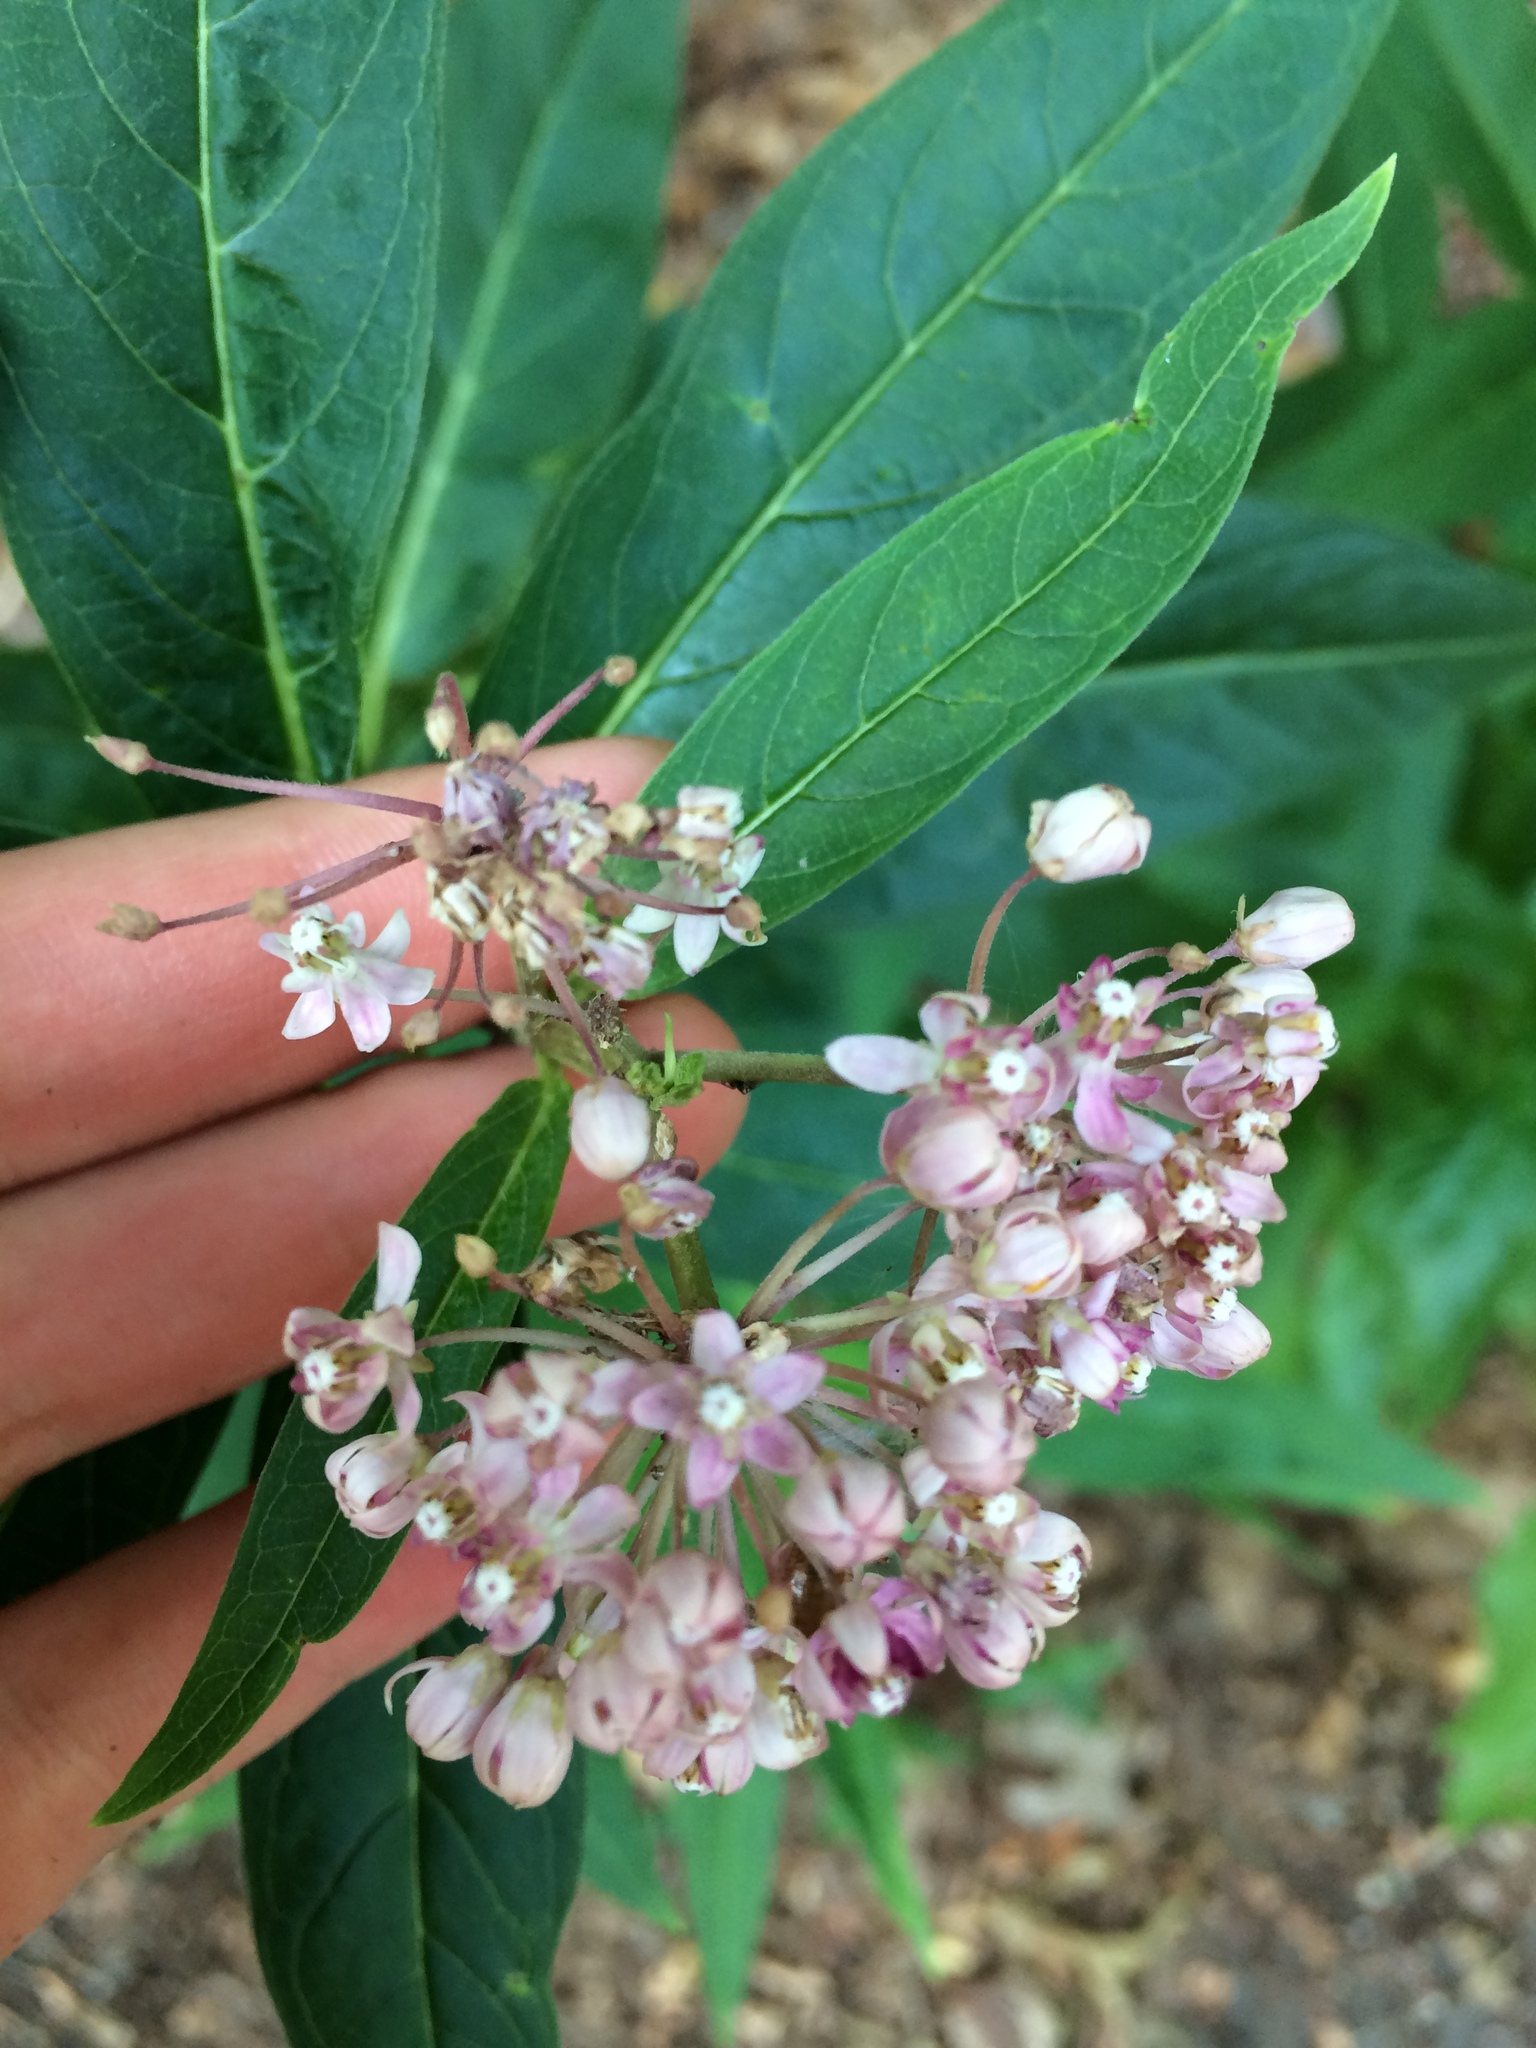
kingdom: Plantae
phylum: Tracheophyta
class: Magnoliopsida
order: Gentianales
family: Apocynaceae
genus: Asclepias
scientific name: Asclepias incarnata
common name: Swamp milkweed
